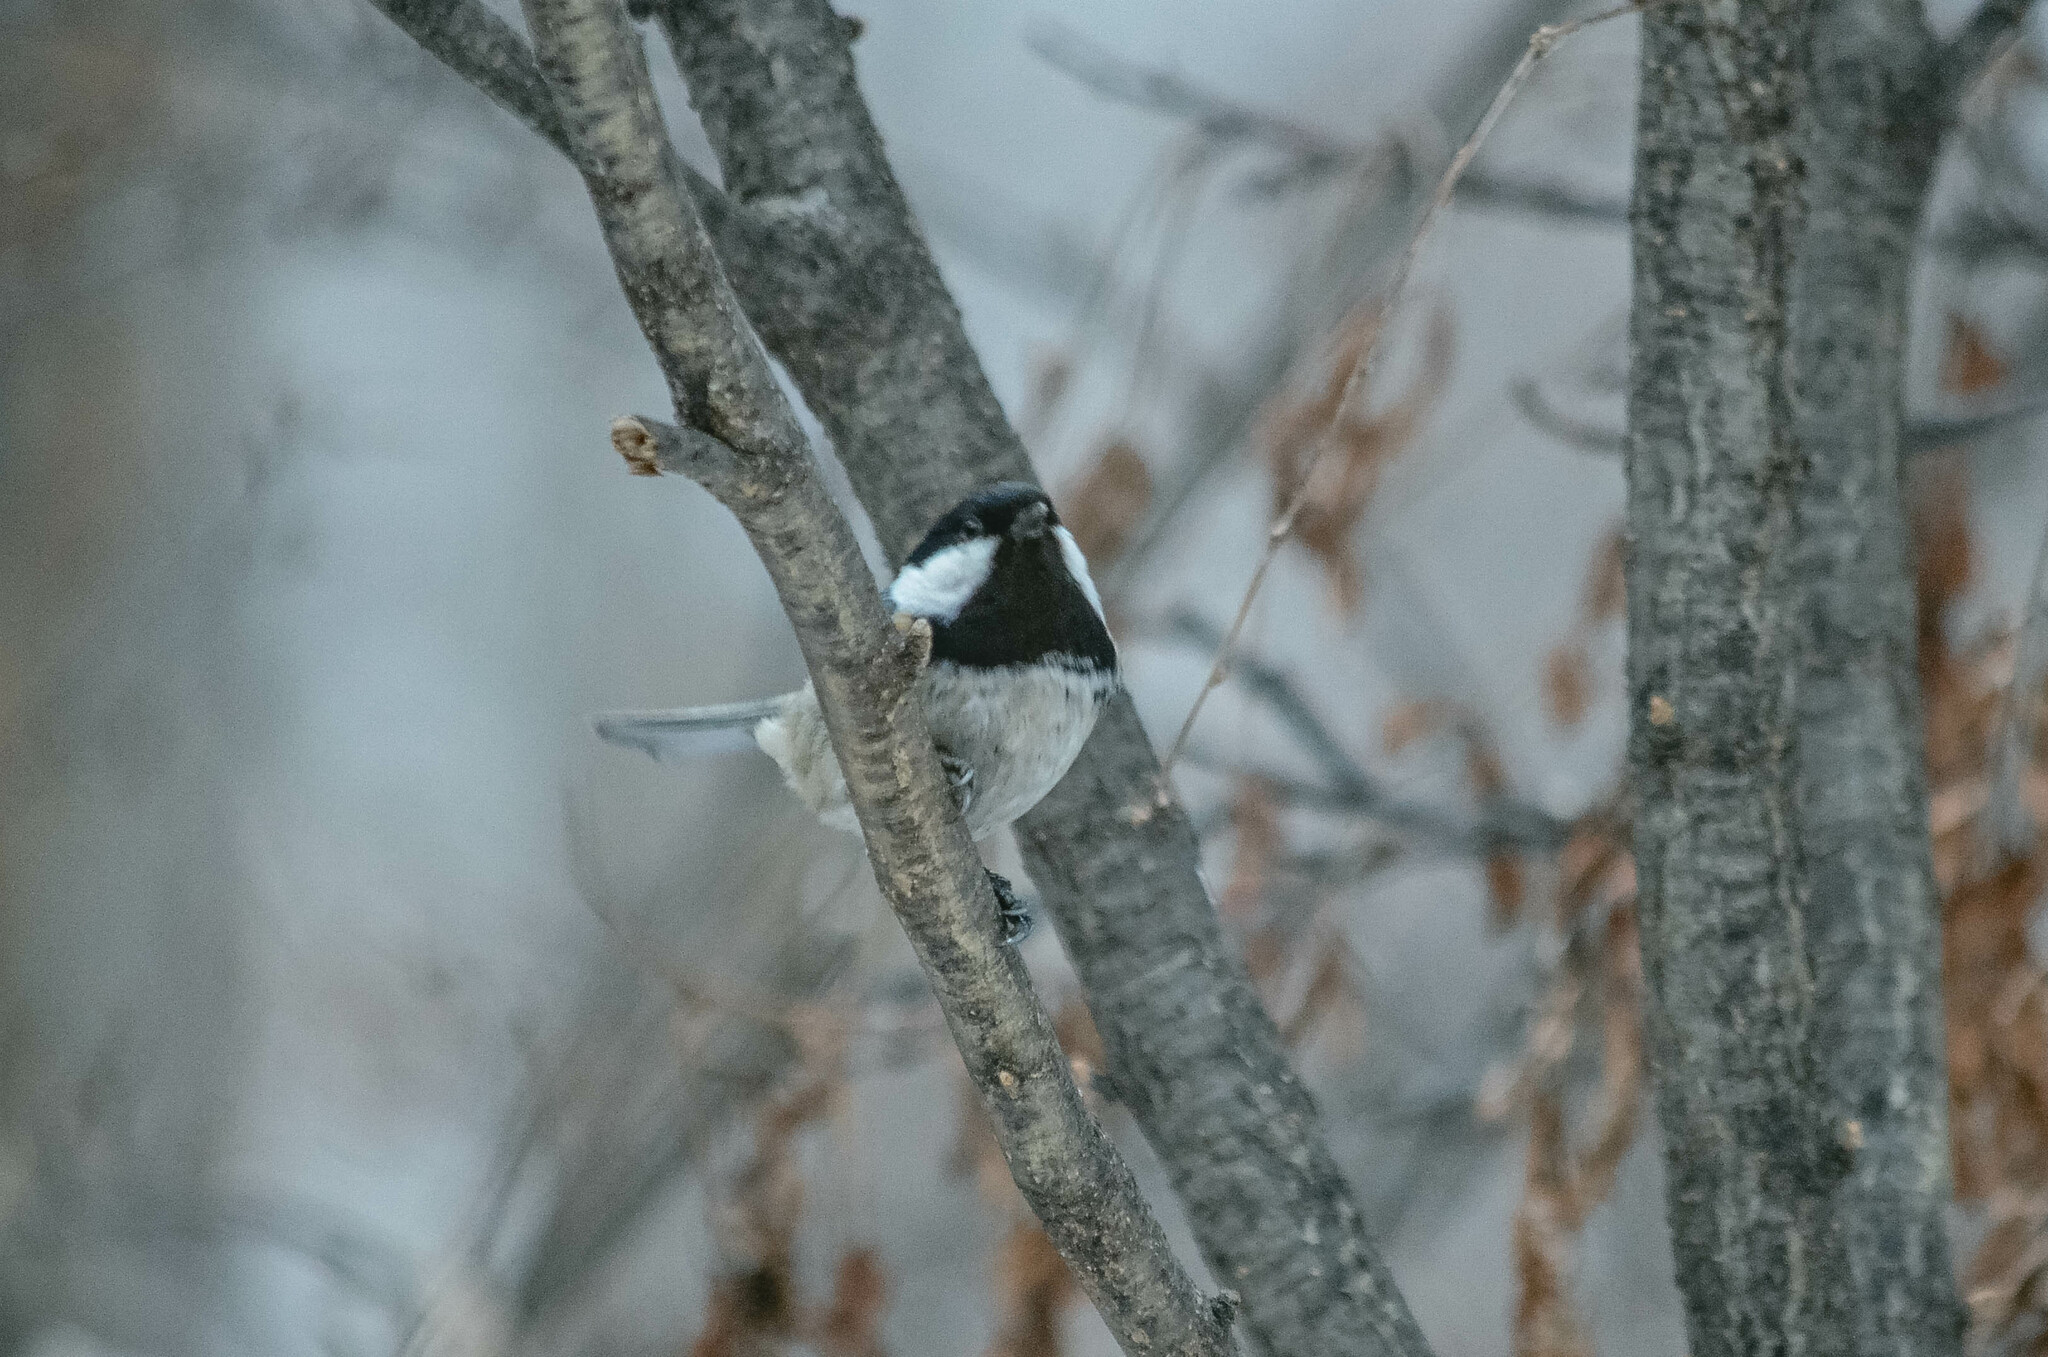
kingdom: Animalia
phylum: Chordata
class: Aves
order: Passeriformes
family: Paridae
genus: Periparus
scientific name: Periparus ater
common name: Coal tit
